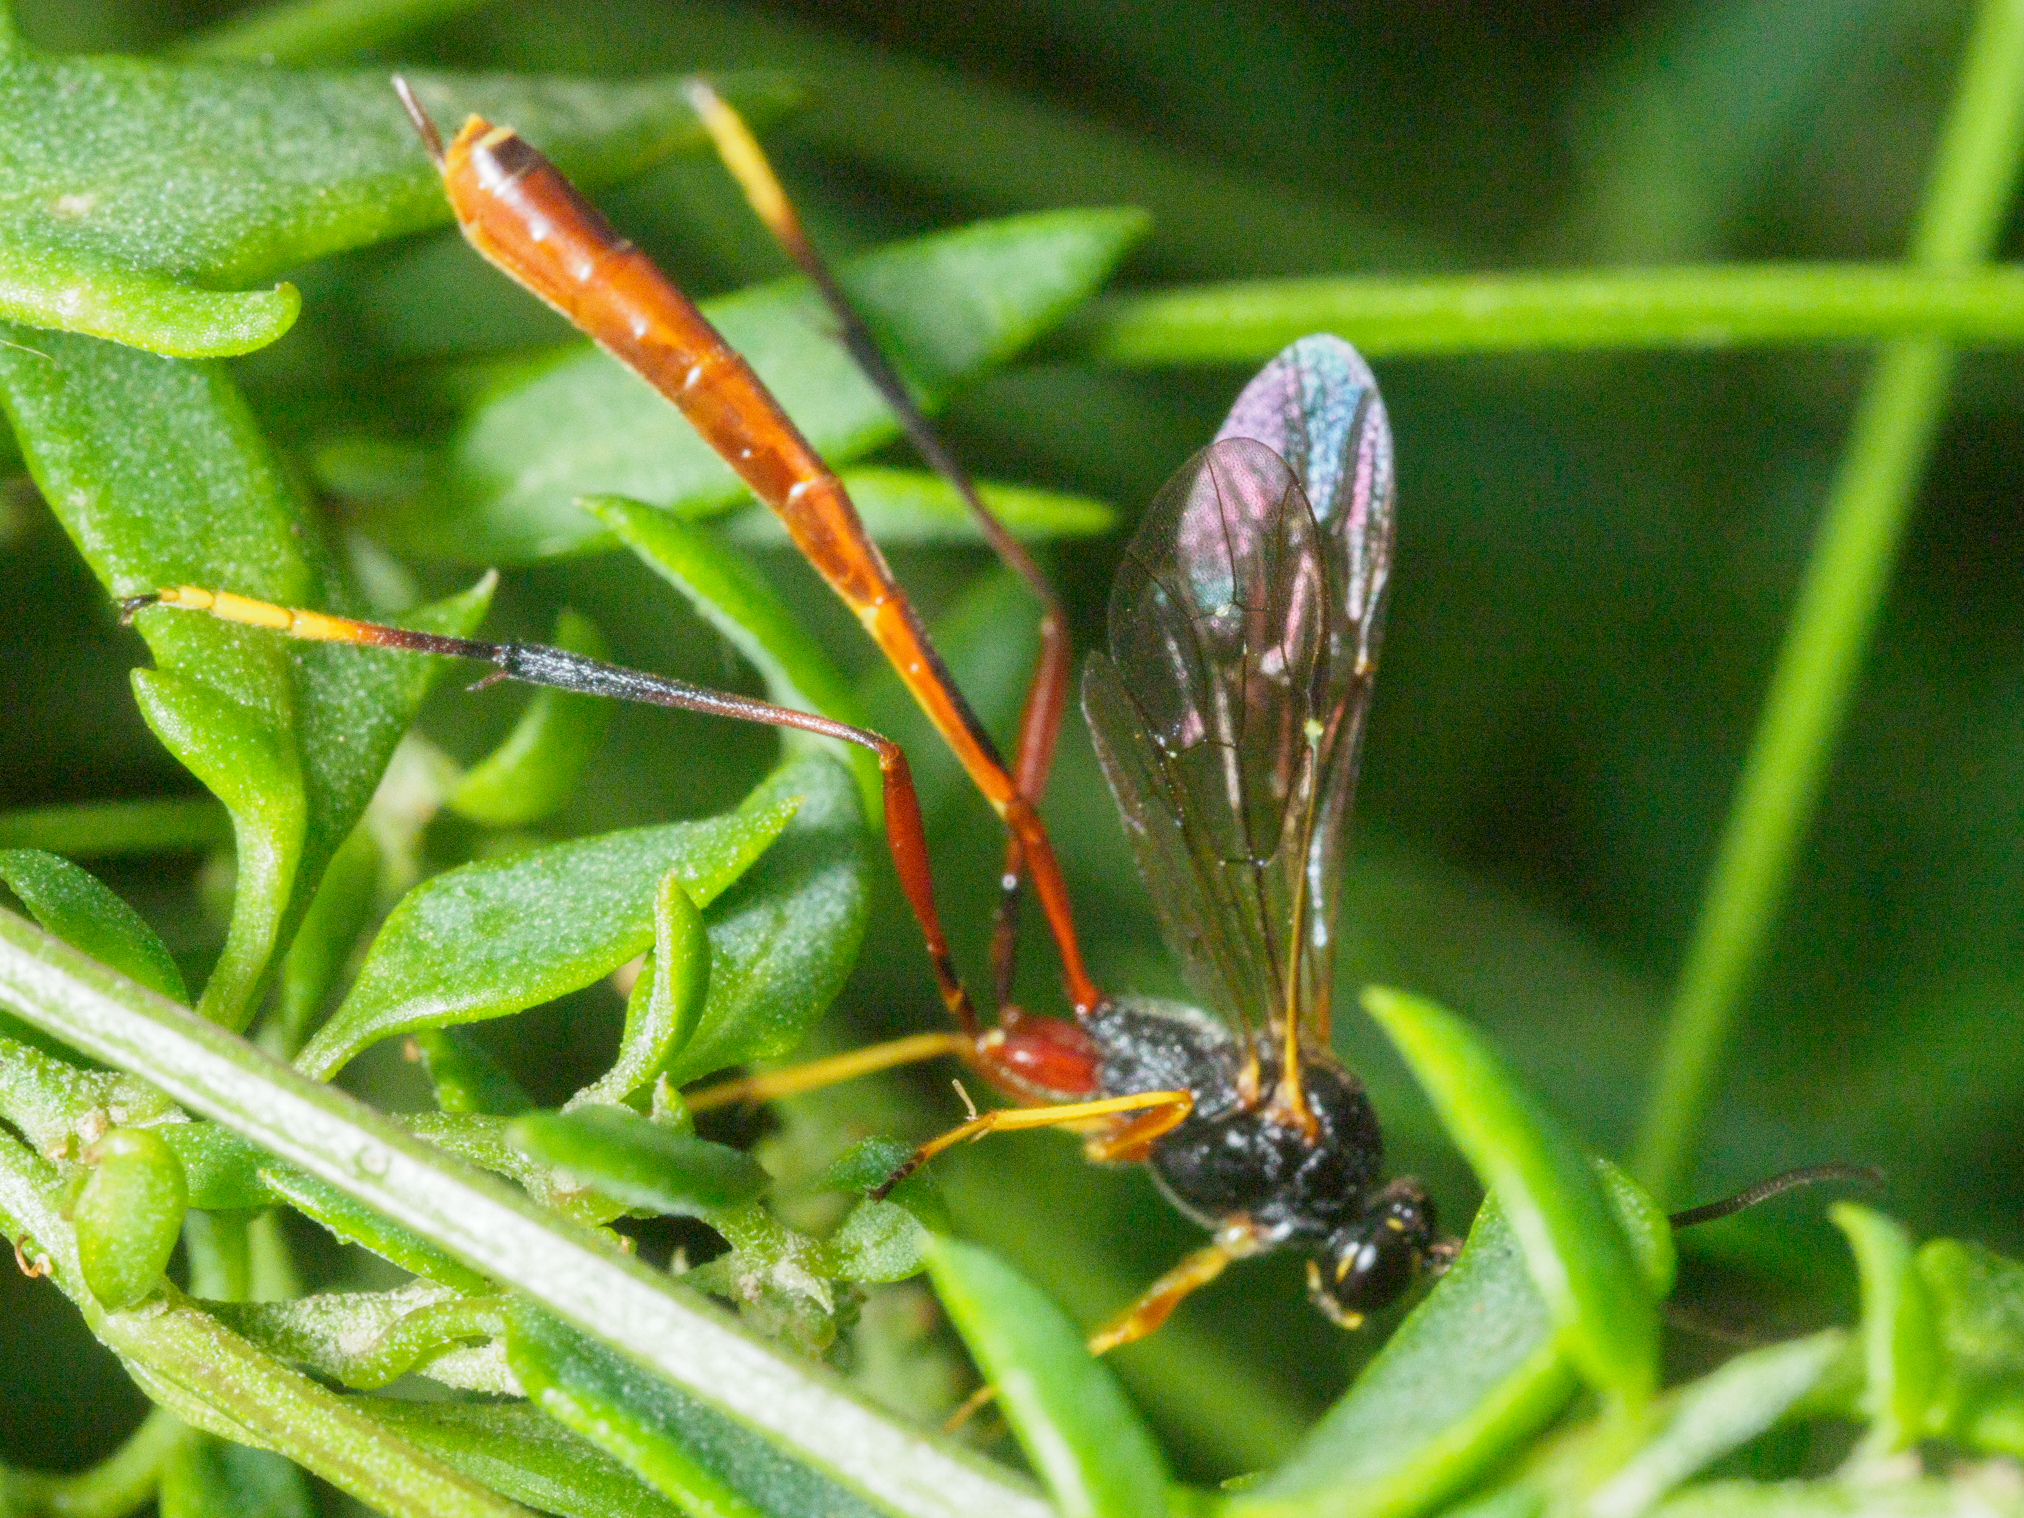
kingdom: Animalia
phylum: Arthropoda
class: Insecta
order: Hymenoptera
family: Ichneumonidae
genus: Heteropelma
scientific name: Heteropelma scaposum
